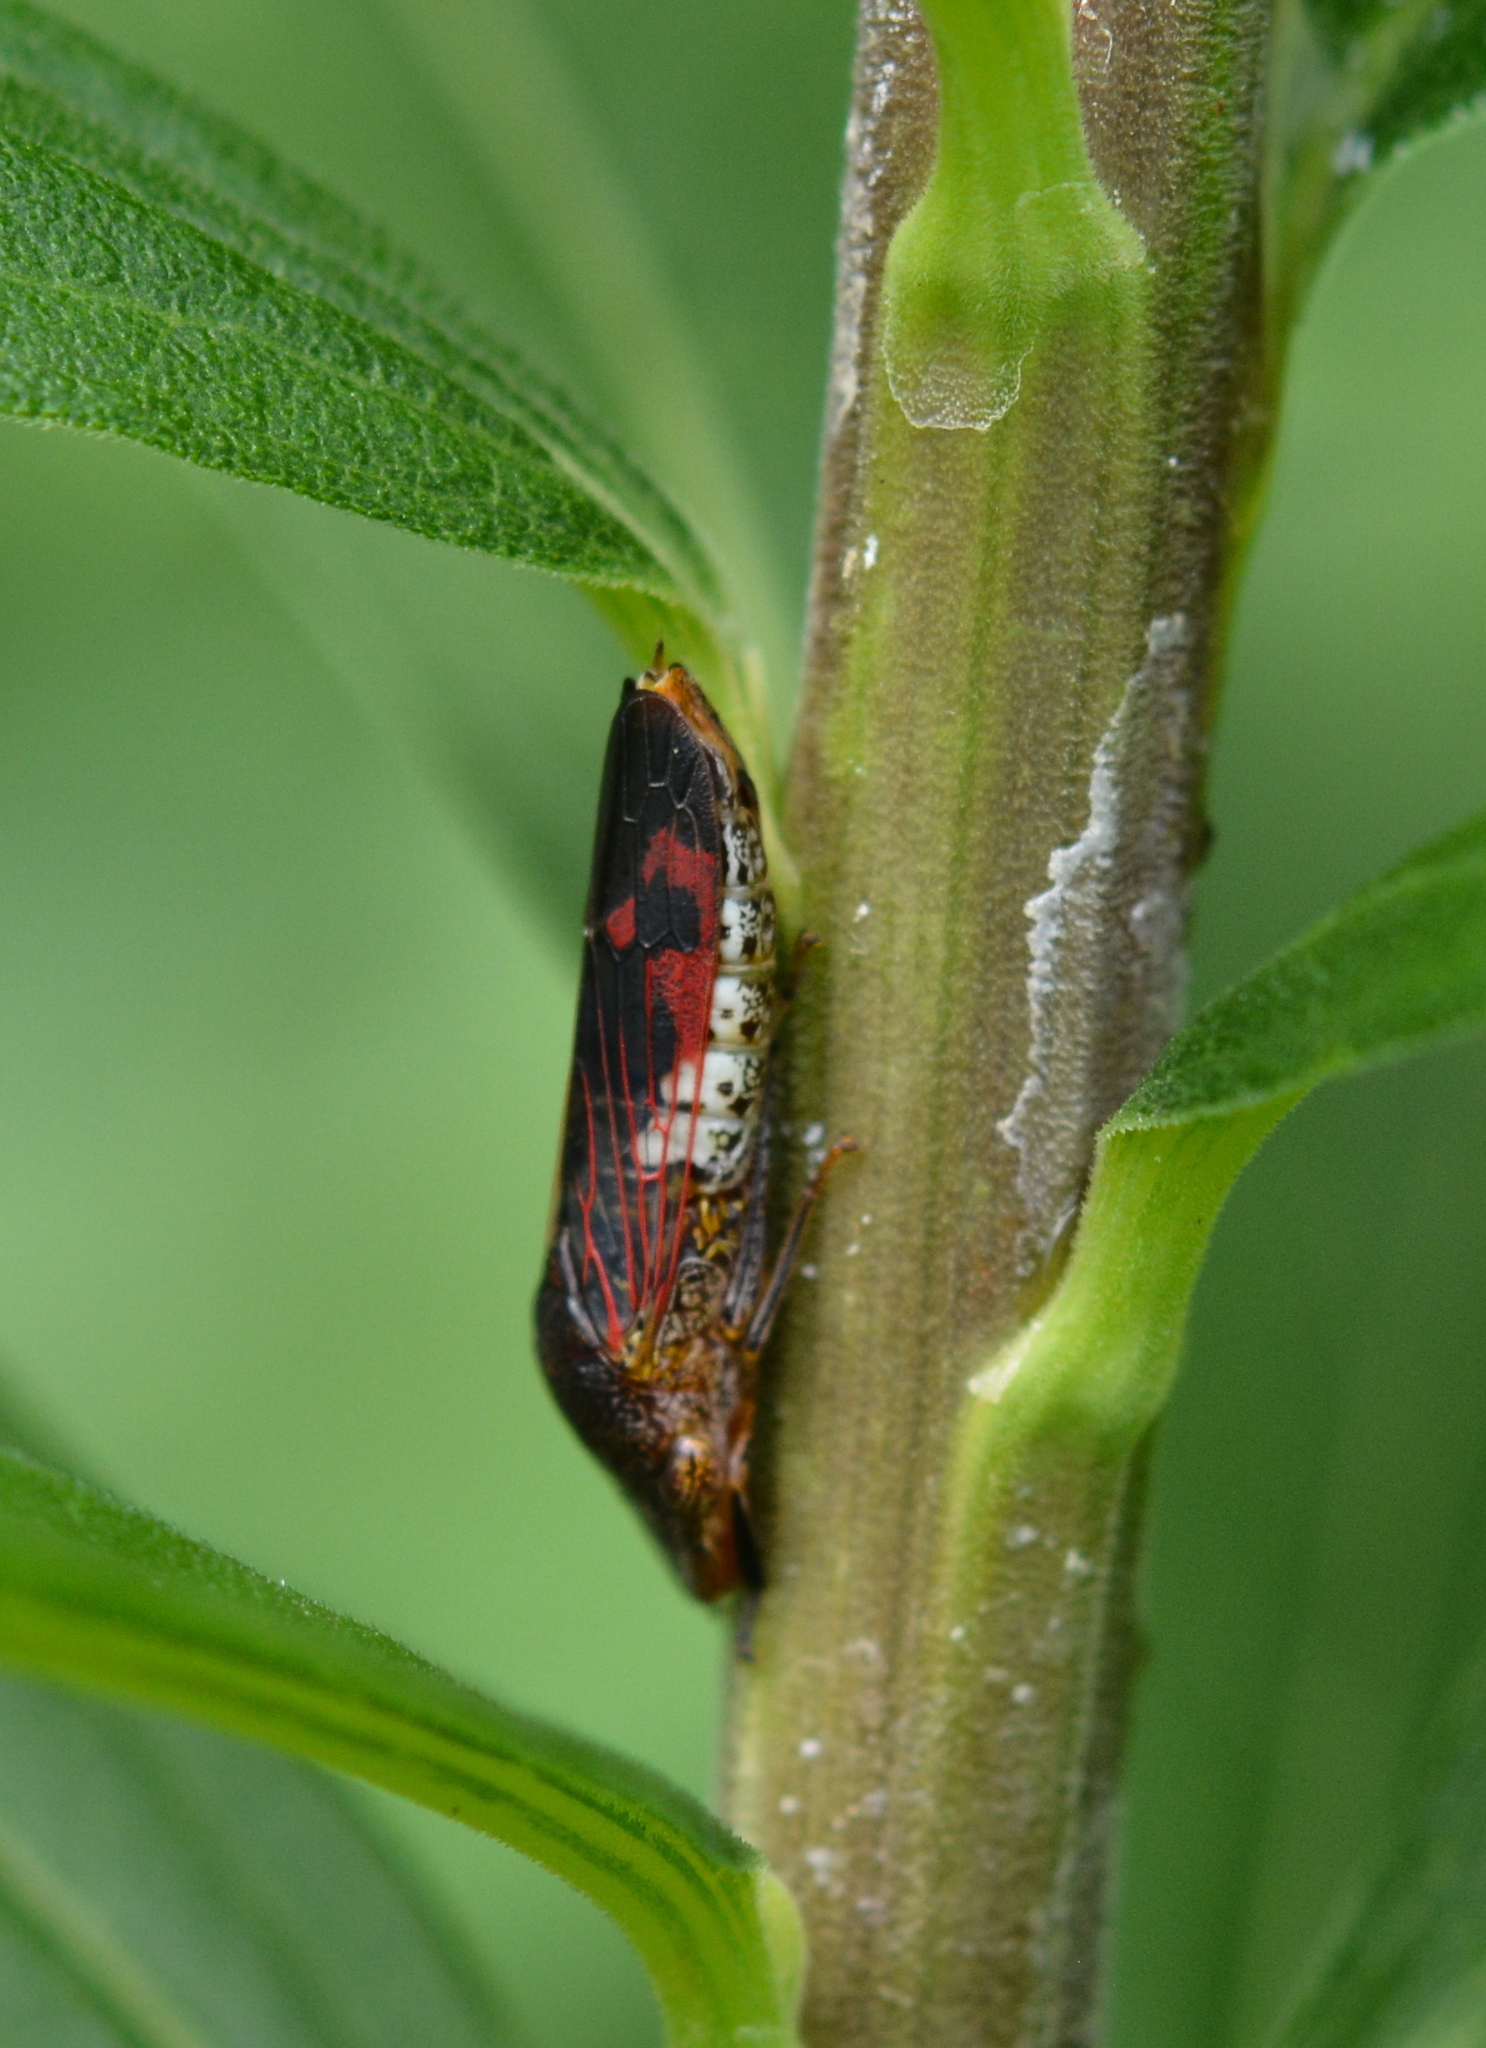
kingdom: Animalia
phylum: Arthropoda
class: Insecta
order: Hemiptera
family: Cicadellidae
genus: Homalodisca
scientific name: Homalodisca vitripennis
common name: Glassy-winged sharpshooter
